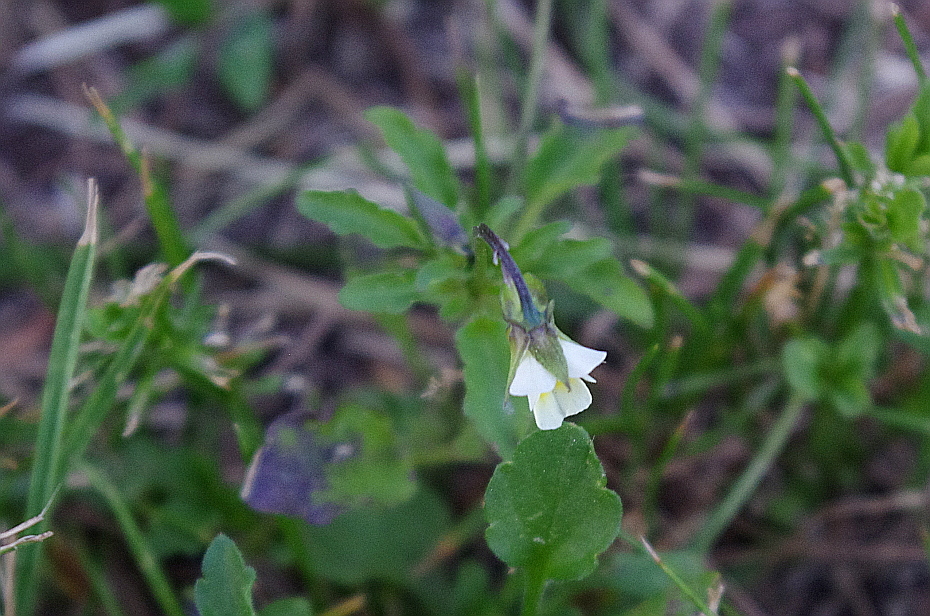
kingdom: Plantae
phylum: Tracheophyta
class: Magnoliopsida
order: Malpighiales
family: Violaceae
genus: Viola
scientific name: Viola arvensis
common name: Field pansy
